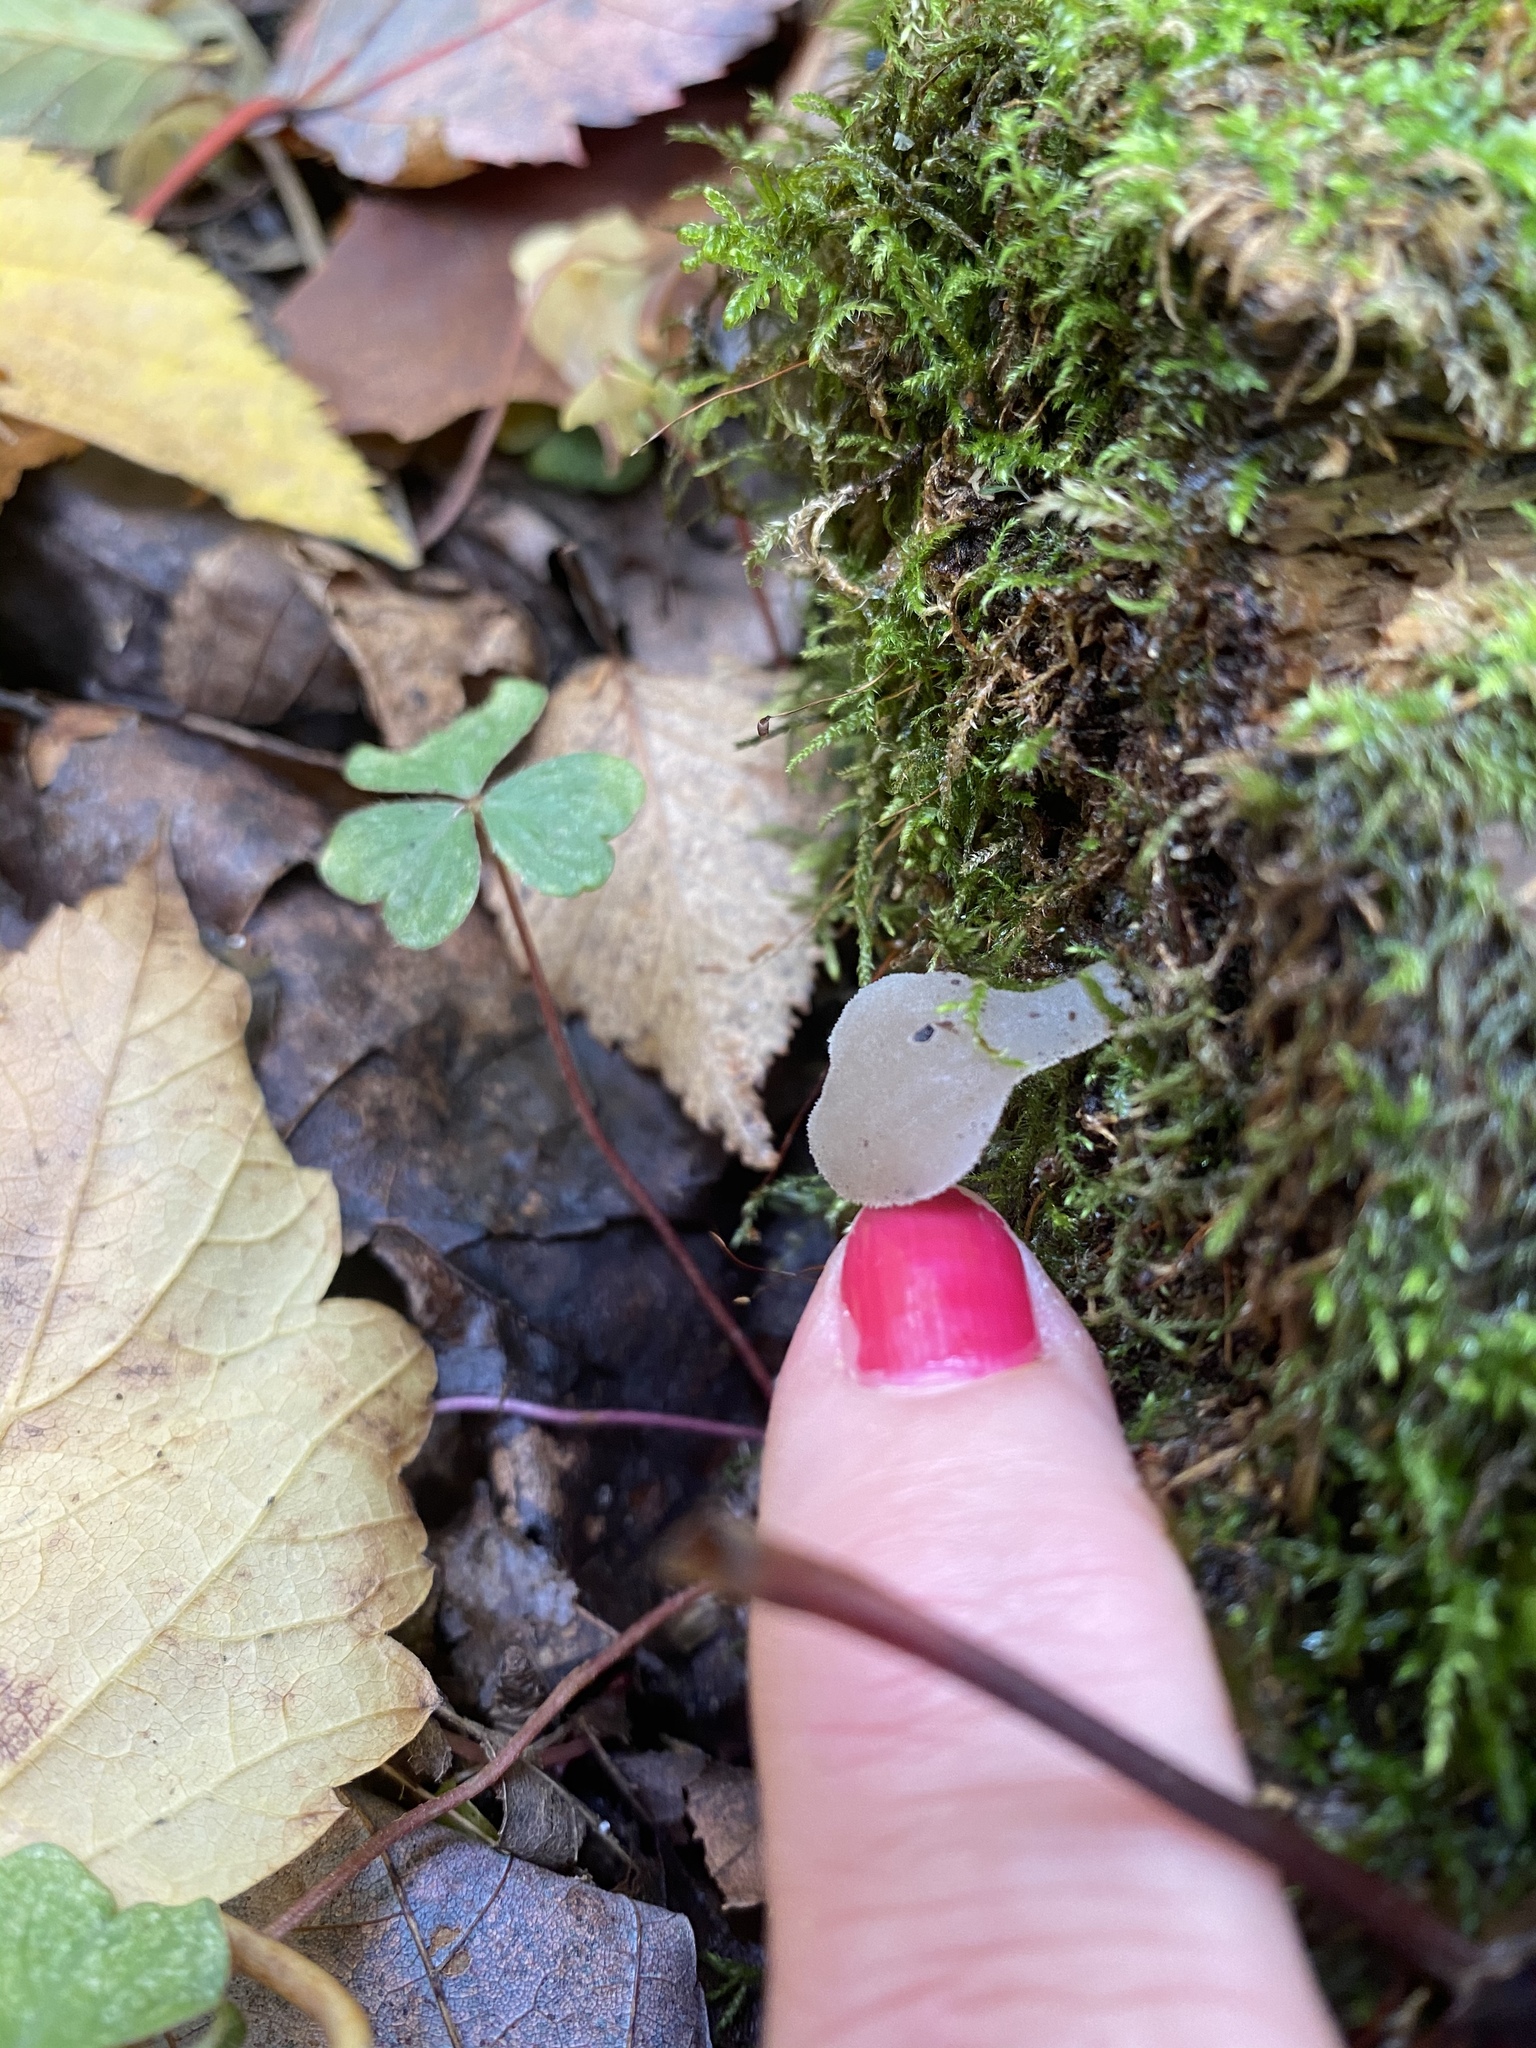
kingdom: Fungi
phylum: Basidiomycota
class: Agaricomycetes
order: Auriculariales
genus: Pseudohydnum
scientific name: Pseudohydnum gelatinosum
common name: Jelly tongue
